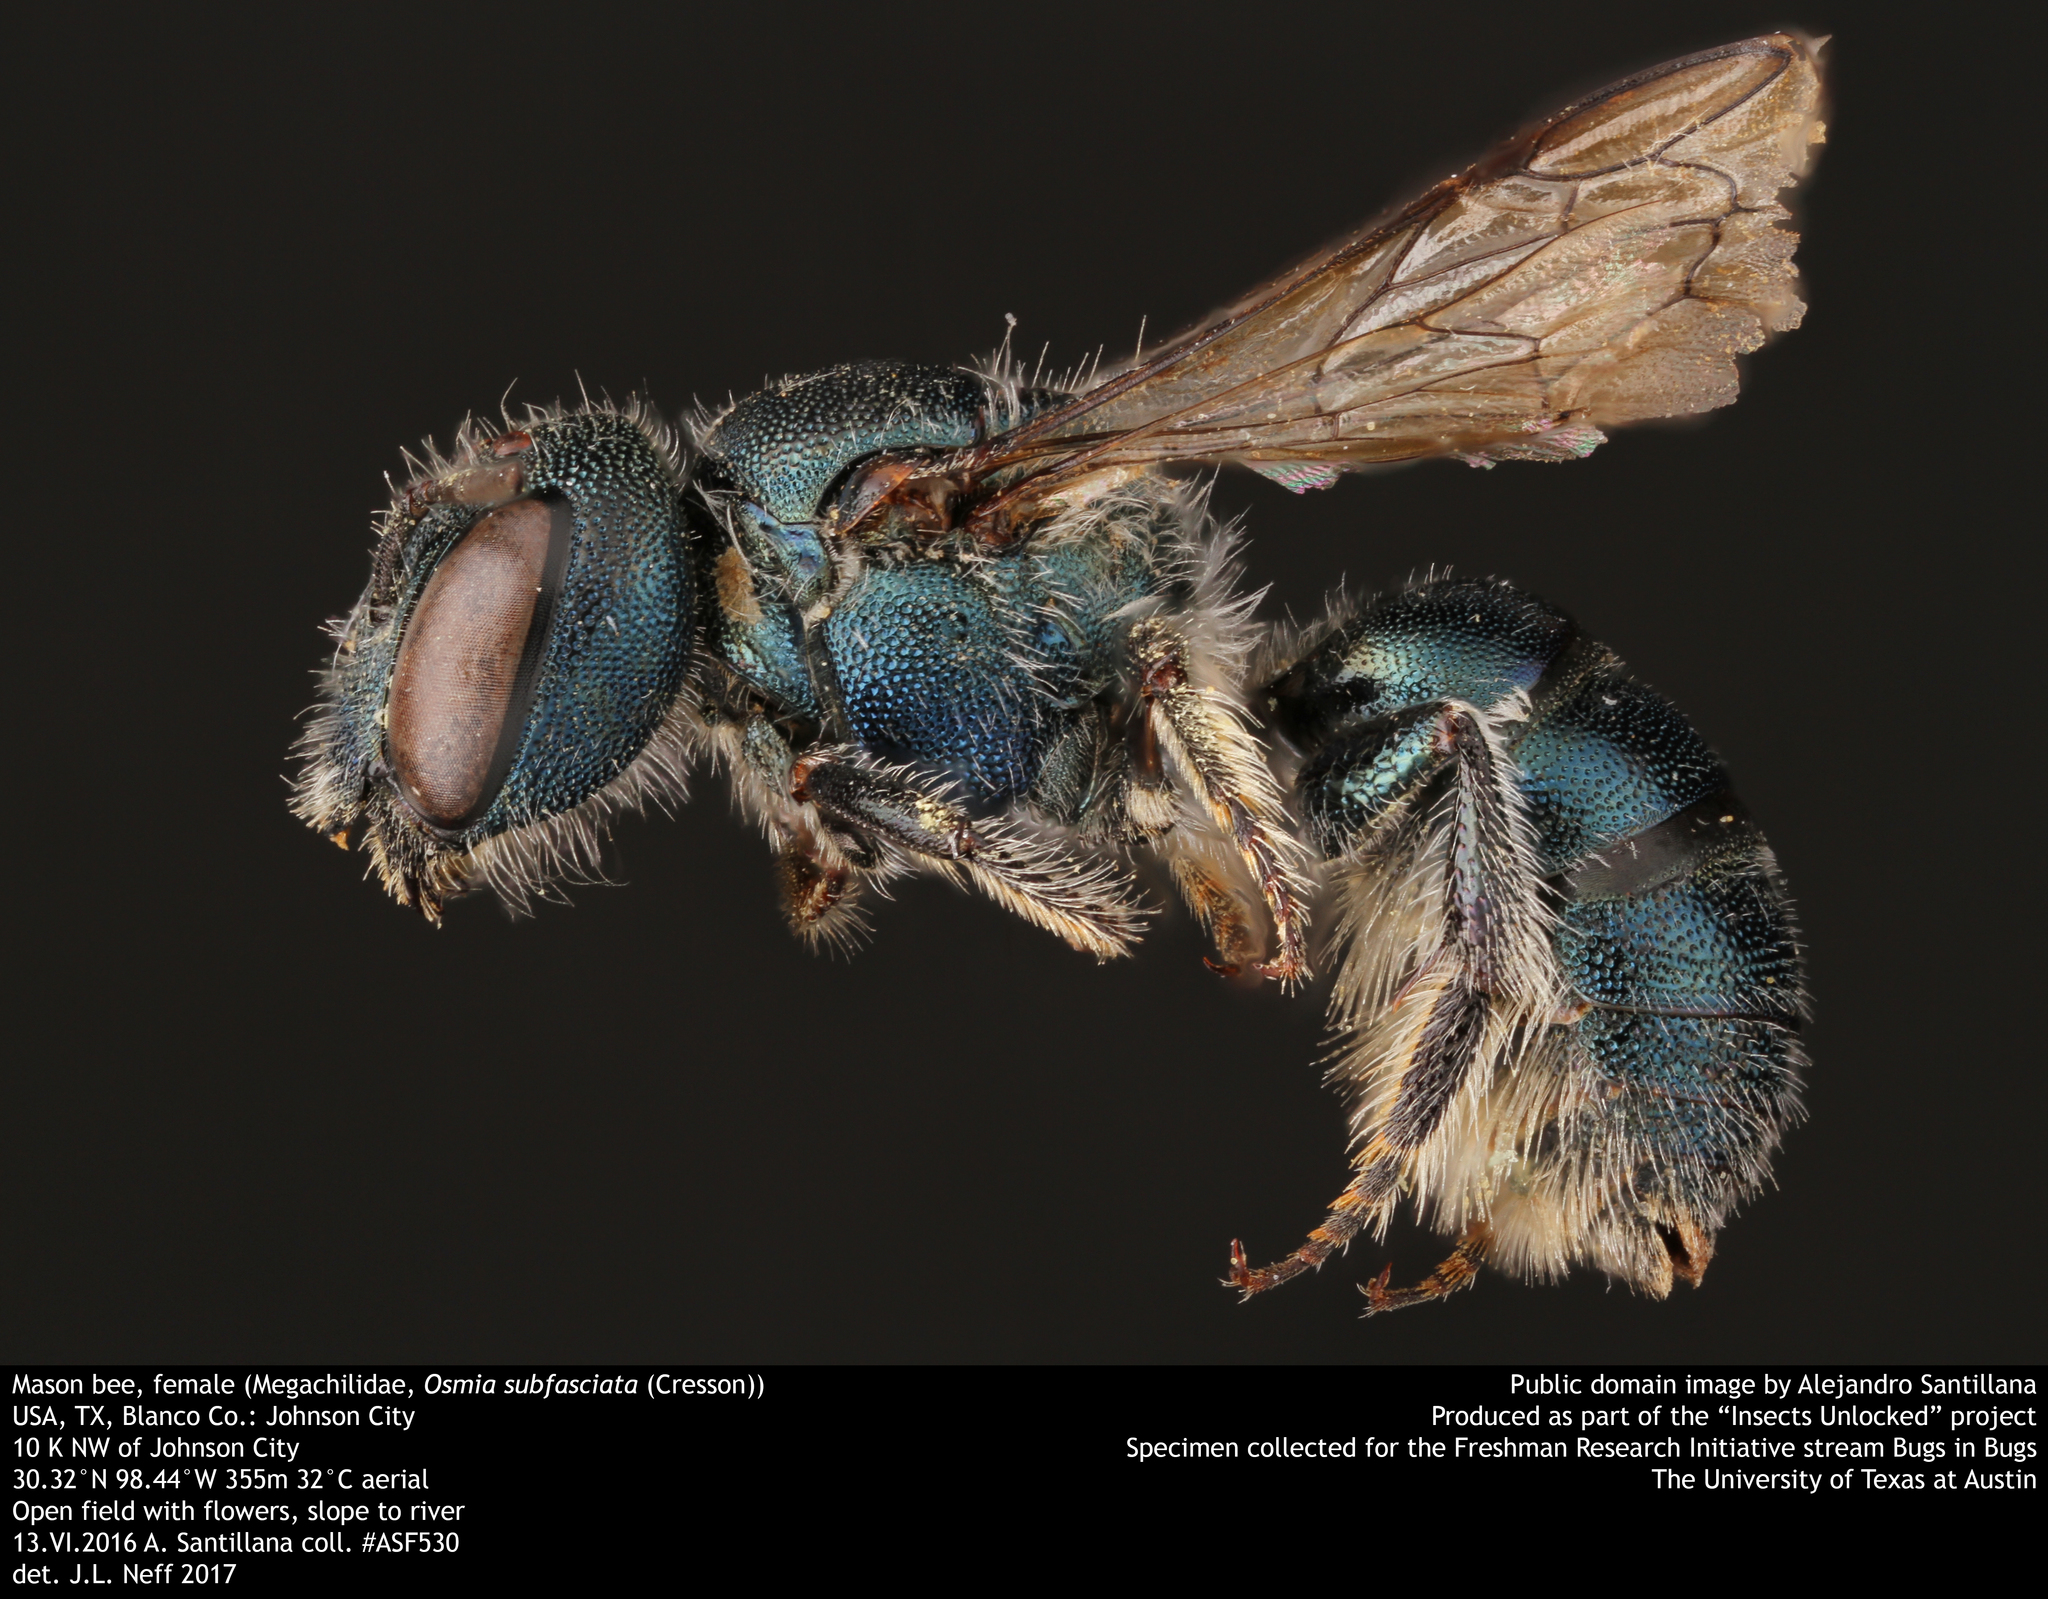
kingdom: Animalia
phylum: Arthropoda
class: Insecta
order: Hymenoptera
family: Megachilidae
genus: Osmia
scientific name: Osmia subfasciata
